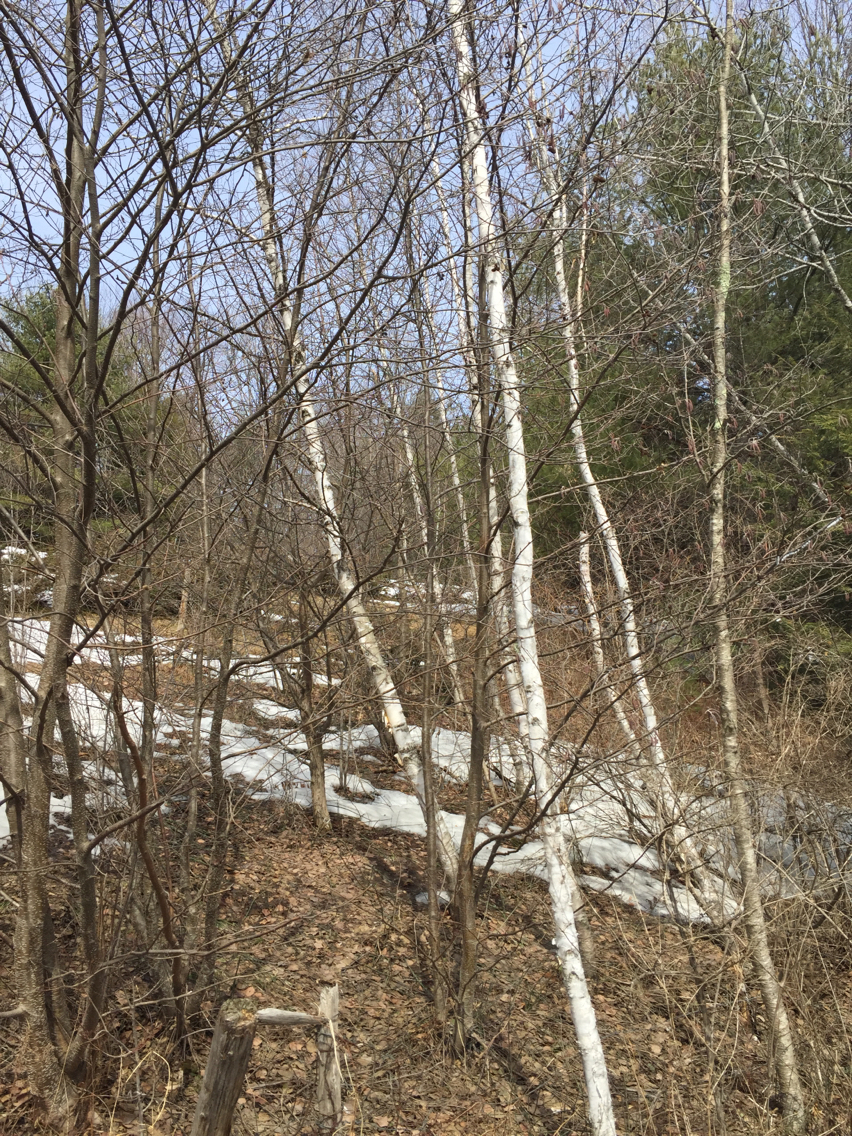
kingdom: Plantae
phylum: Tracheophyta
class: Magnoliopsida
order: Fagales
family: Betulaceae
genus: Betula
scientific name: Betula papyrifera
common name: Paper birch
